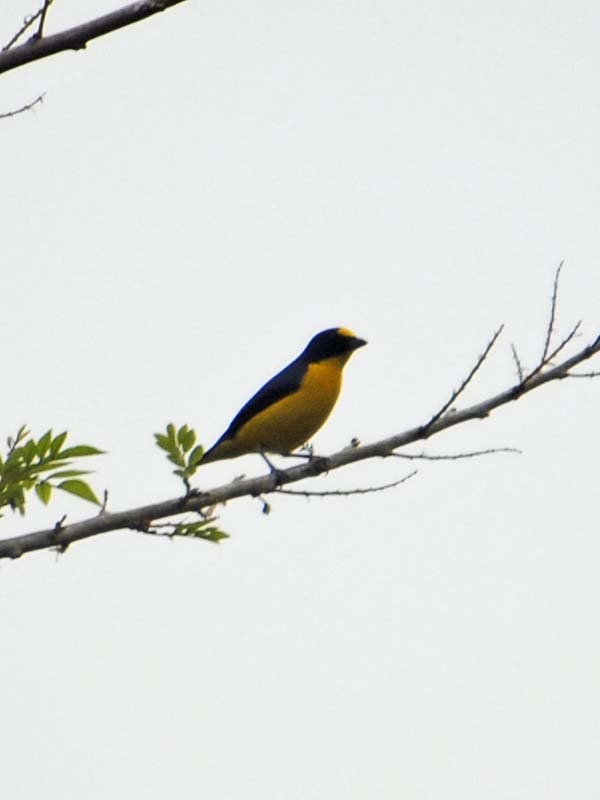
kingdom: Animalia
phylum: Chordata
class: Aves
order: Passeriformes
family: Fringillidae
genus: Euphonia
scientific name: Euphonia hirundinacea
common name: Yellow-throated euphonia
